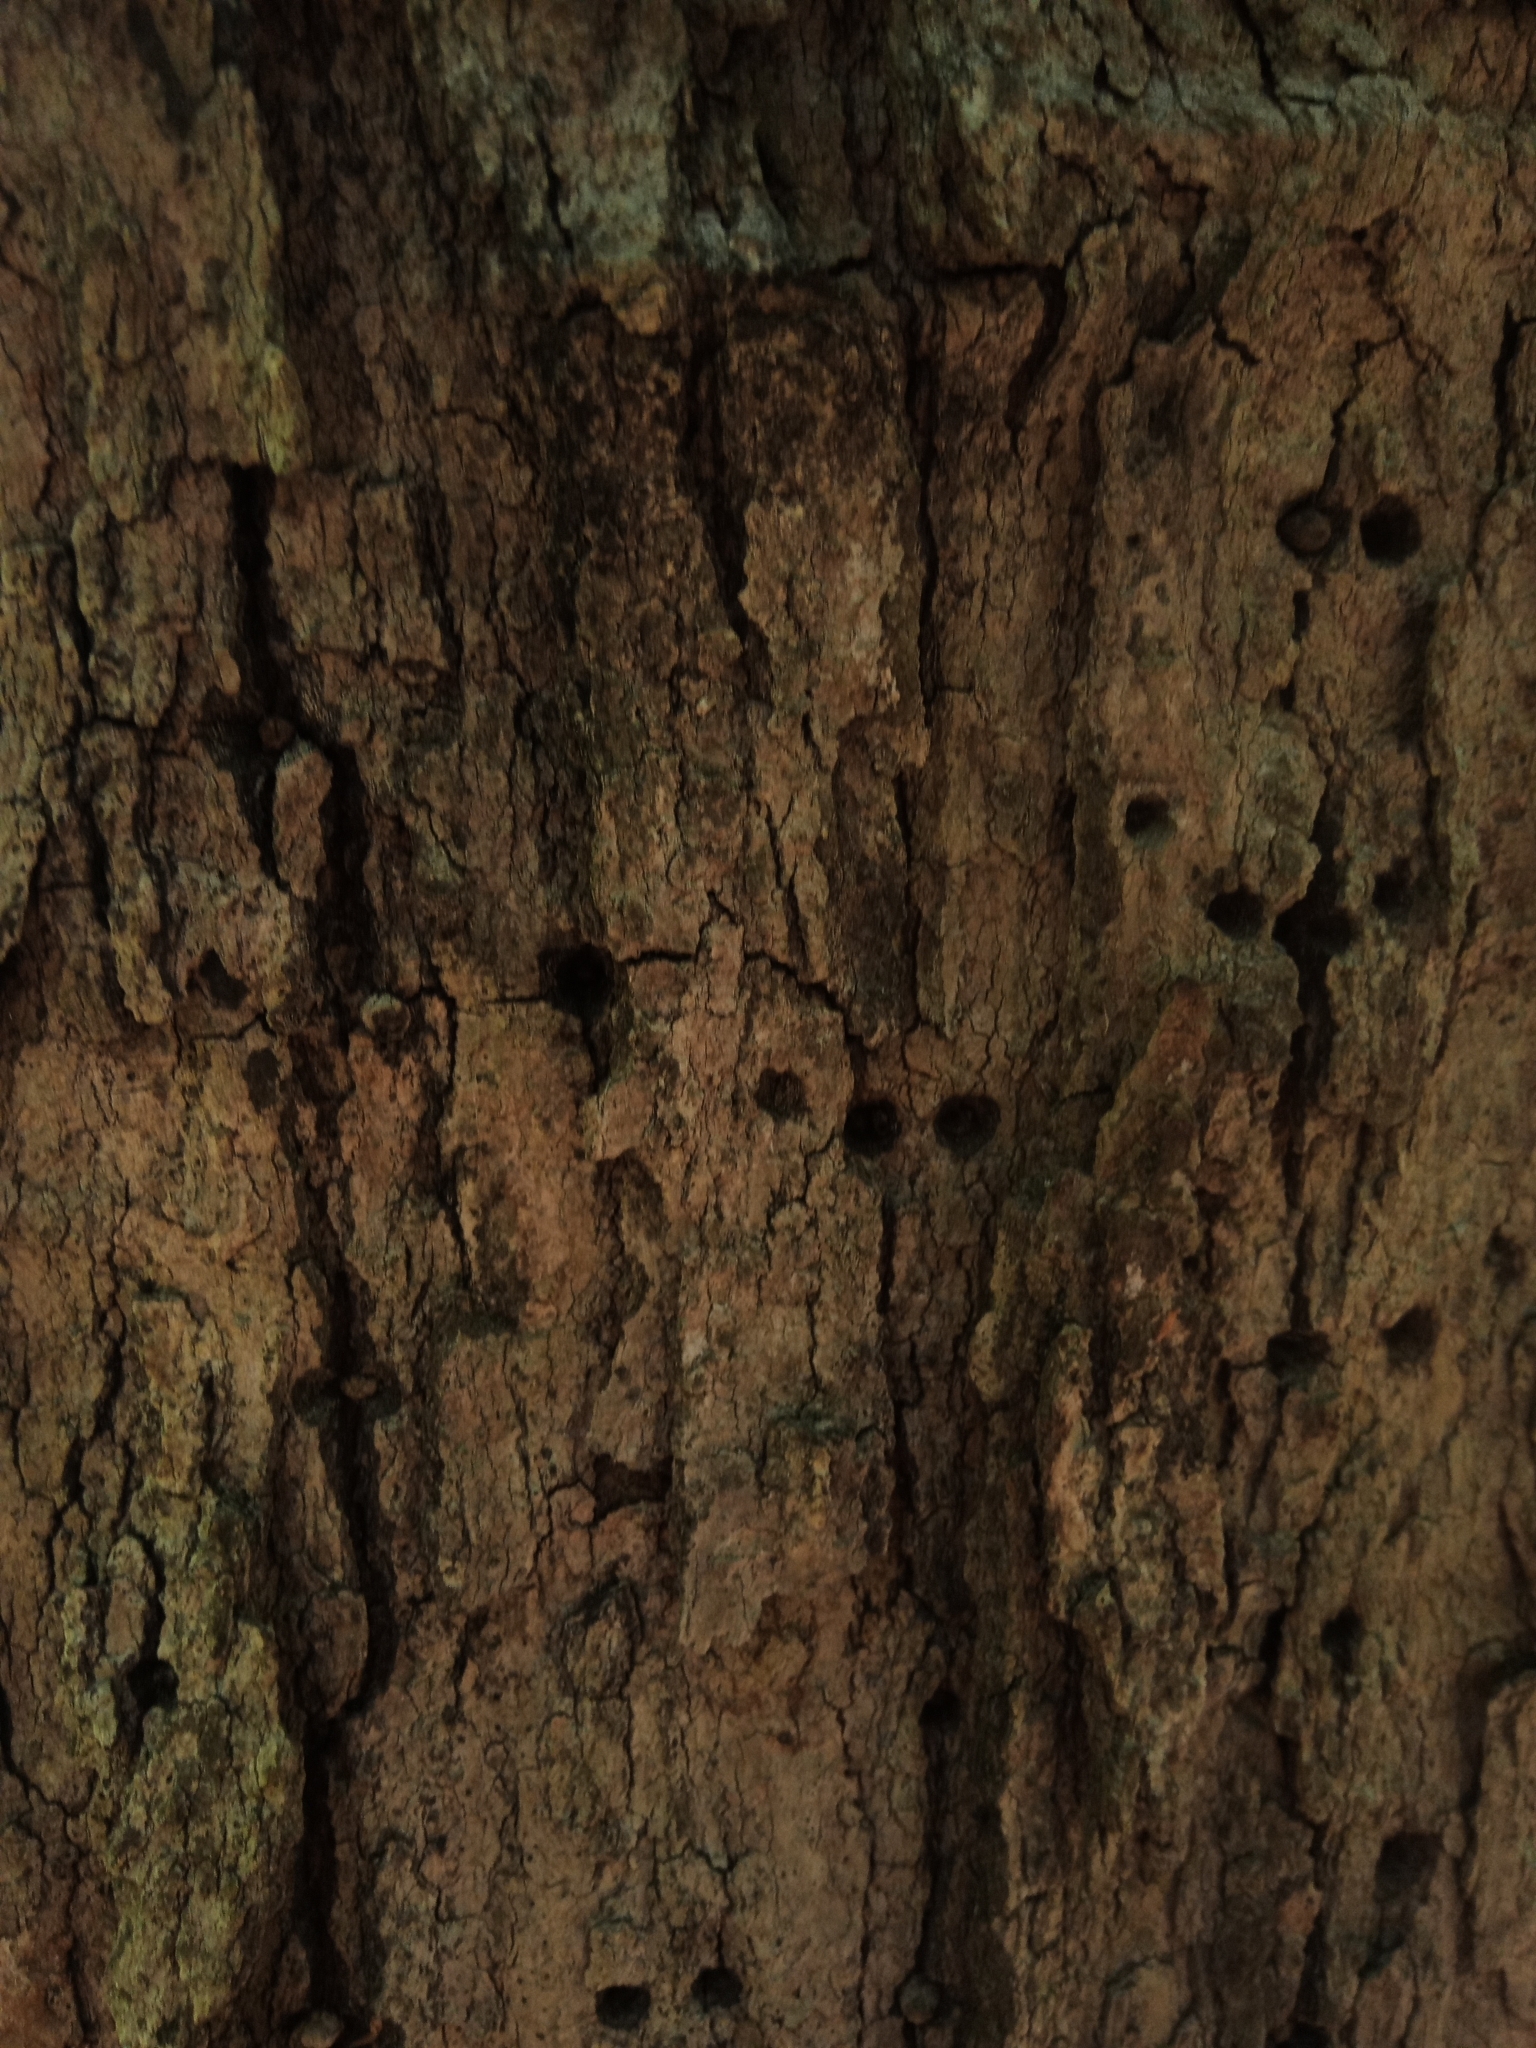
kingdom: Animalia
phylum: Chordata
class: Aves
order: Piciformes
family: Picidae
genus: Sphyrapicus
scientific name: Sphyrapicus varius
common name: Yellow-bellied sapsucker
